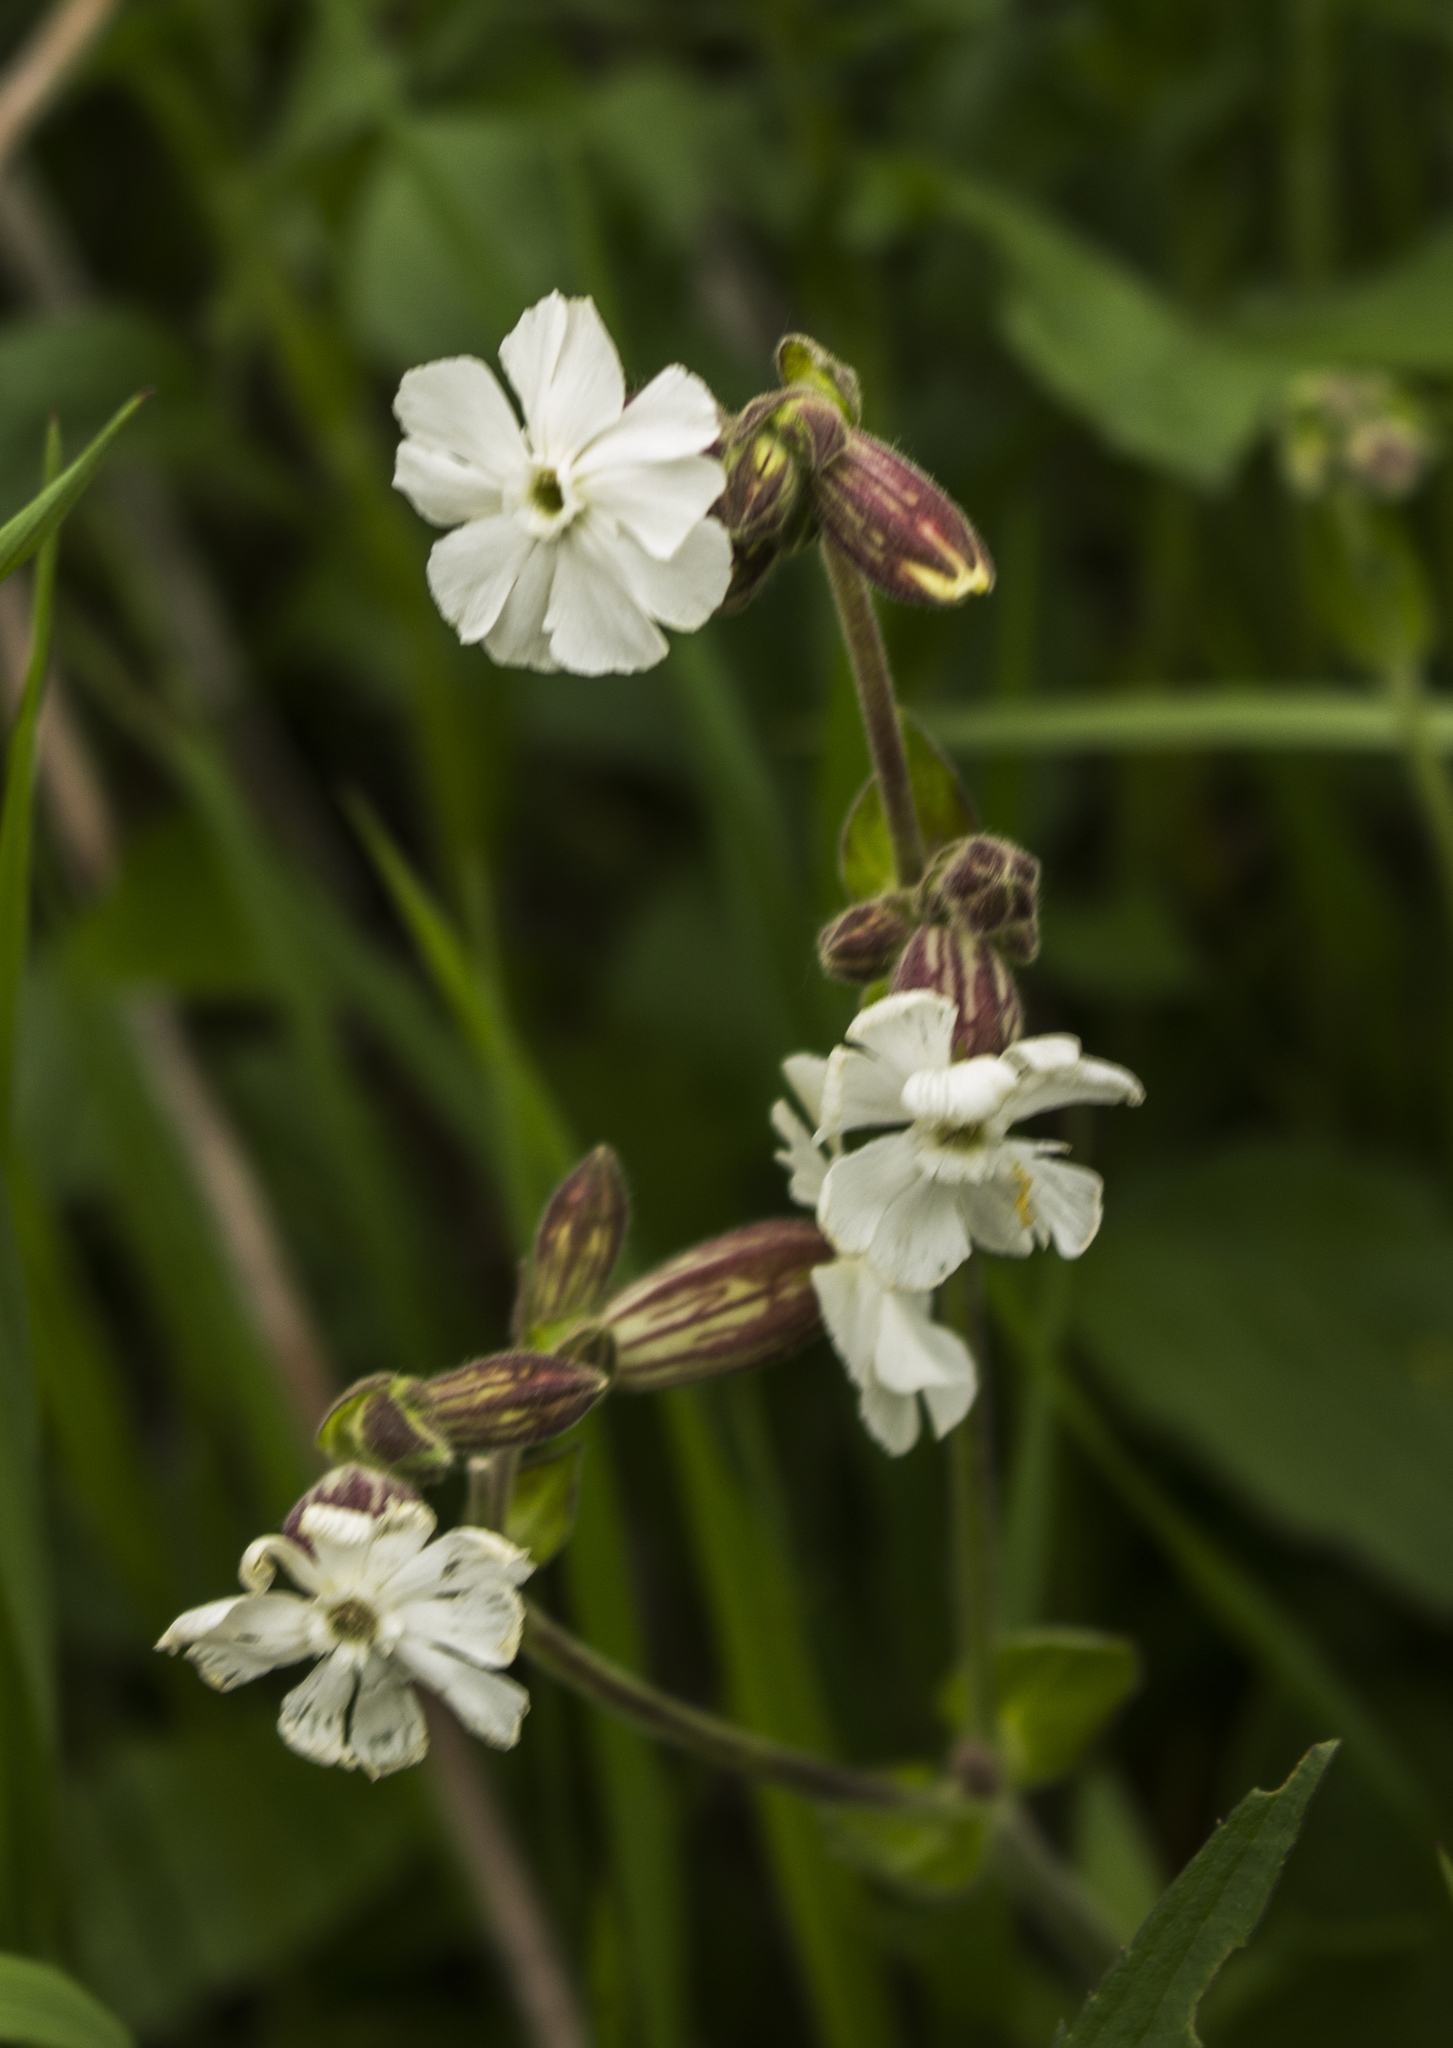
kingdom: Plantae
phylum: Tracheophyta
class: Magnoliopsida
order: Caryophyllales
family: Caryophyllaceae
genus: Silene
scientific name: Silene latifolia
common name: White campion
